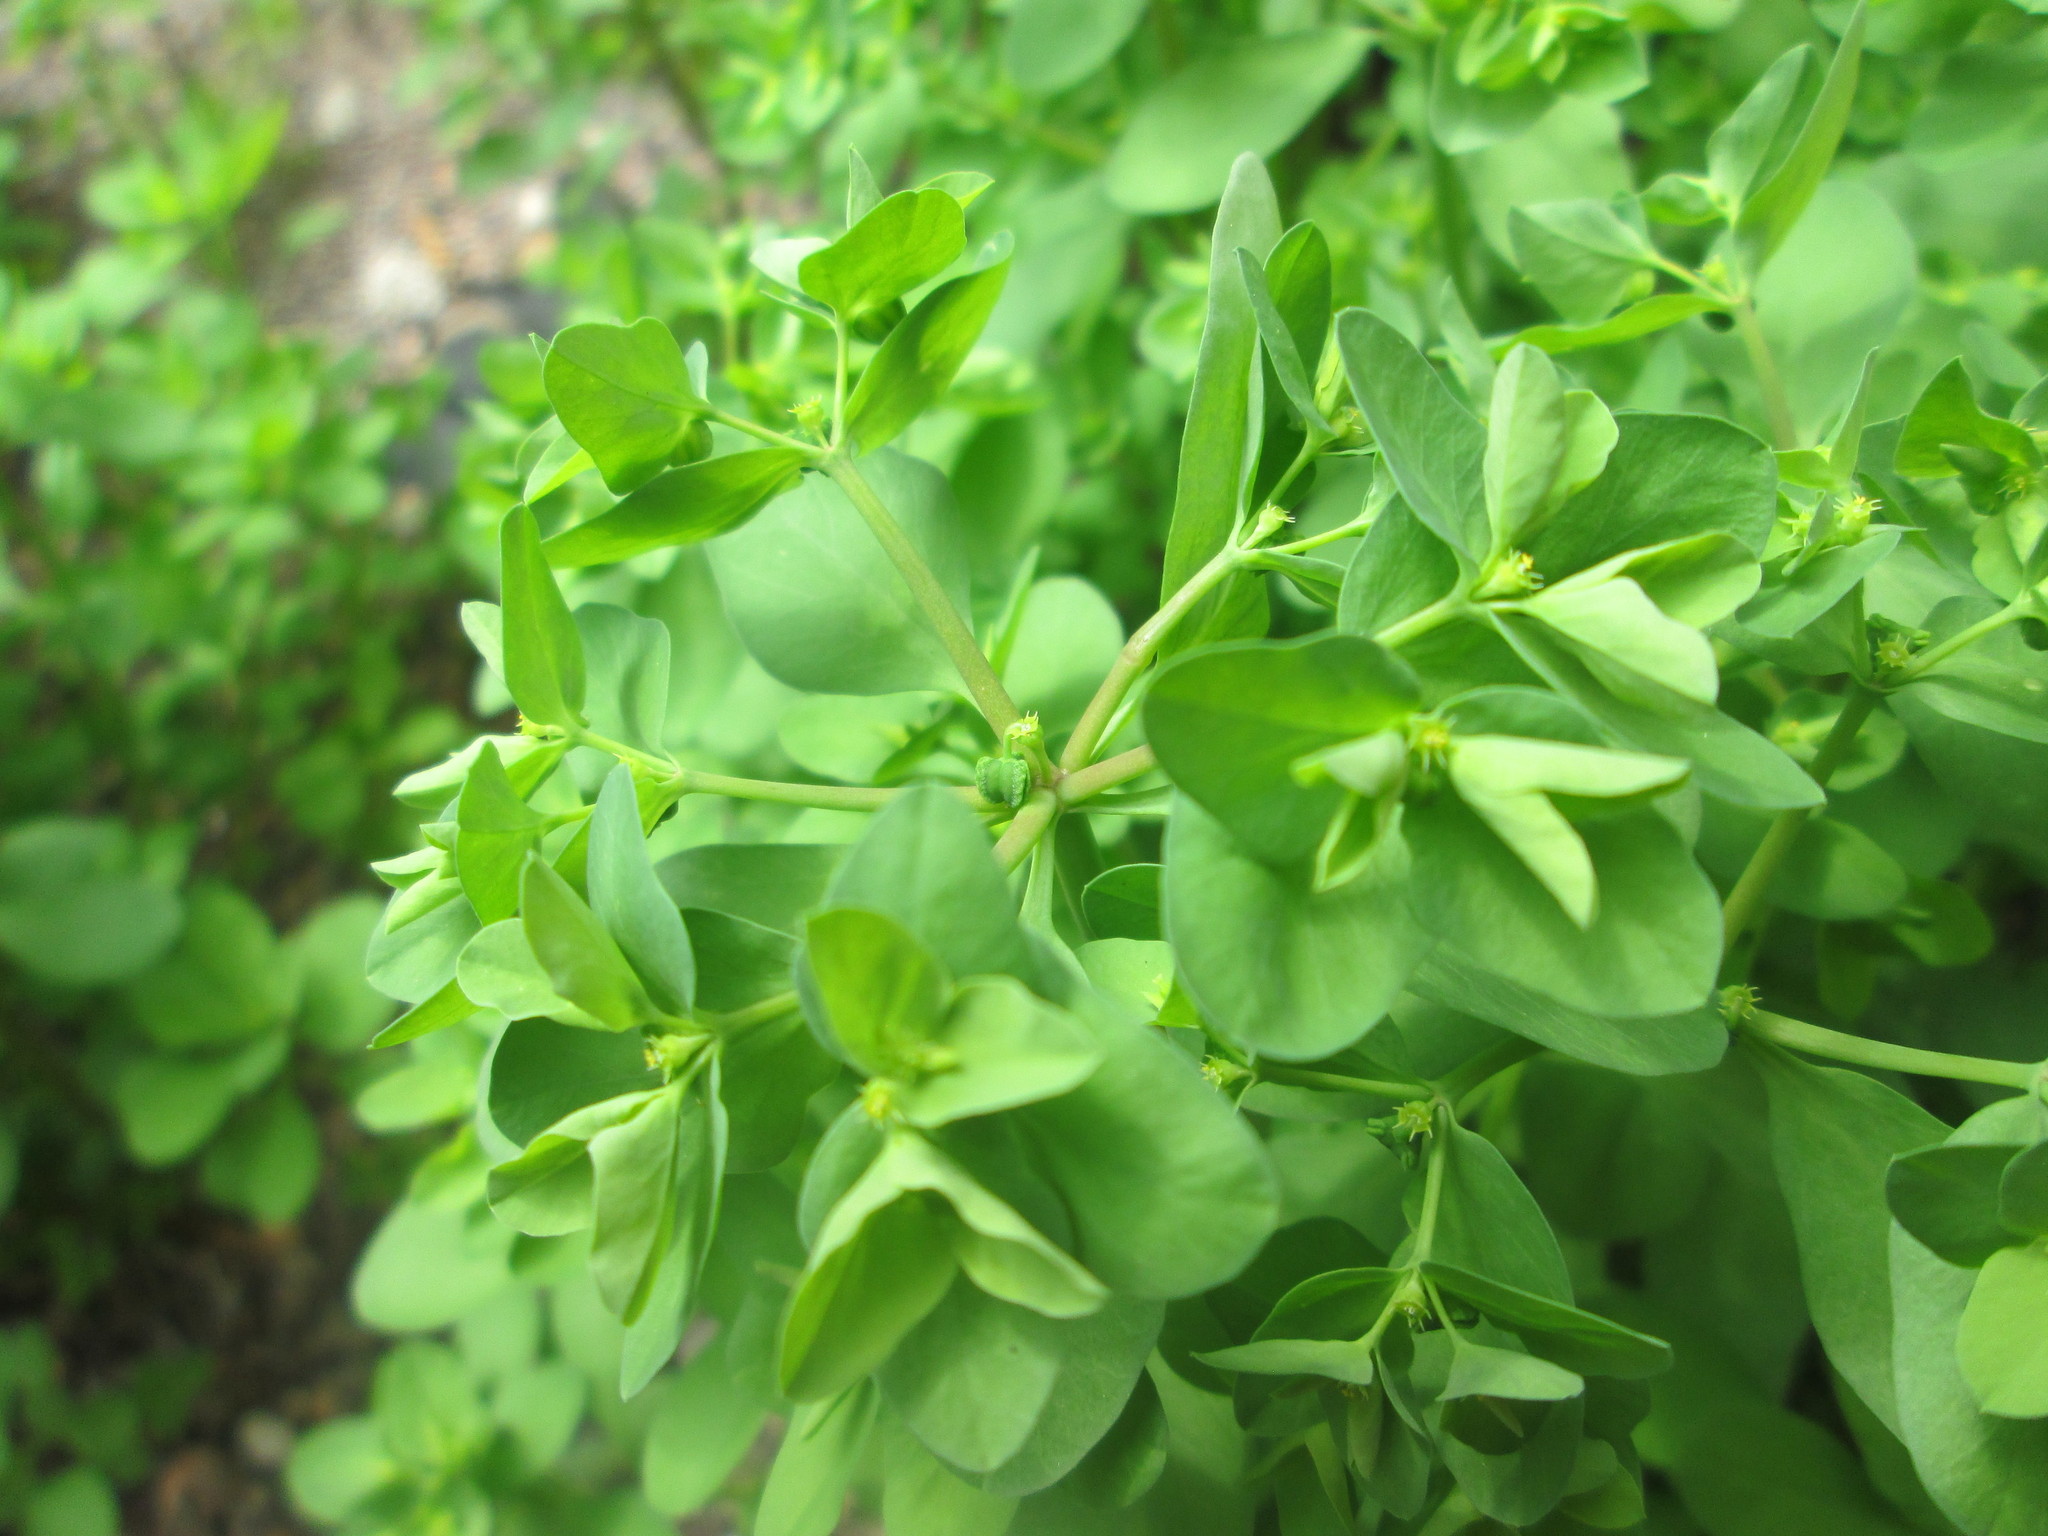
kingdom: Plantae
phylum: Tracheophyta
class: Magnoliopsida
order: Malpighiales
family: Euphorbiaceae
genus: Euphorbia
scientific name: Euphorbia peplus
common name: Petty spurge
